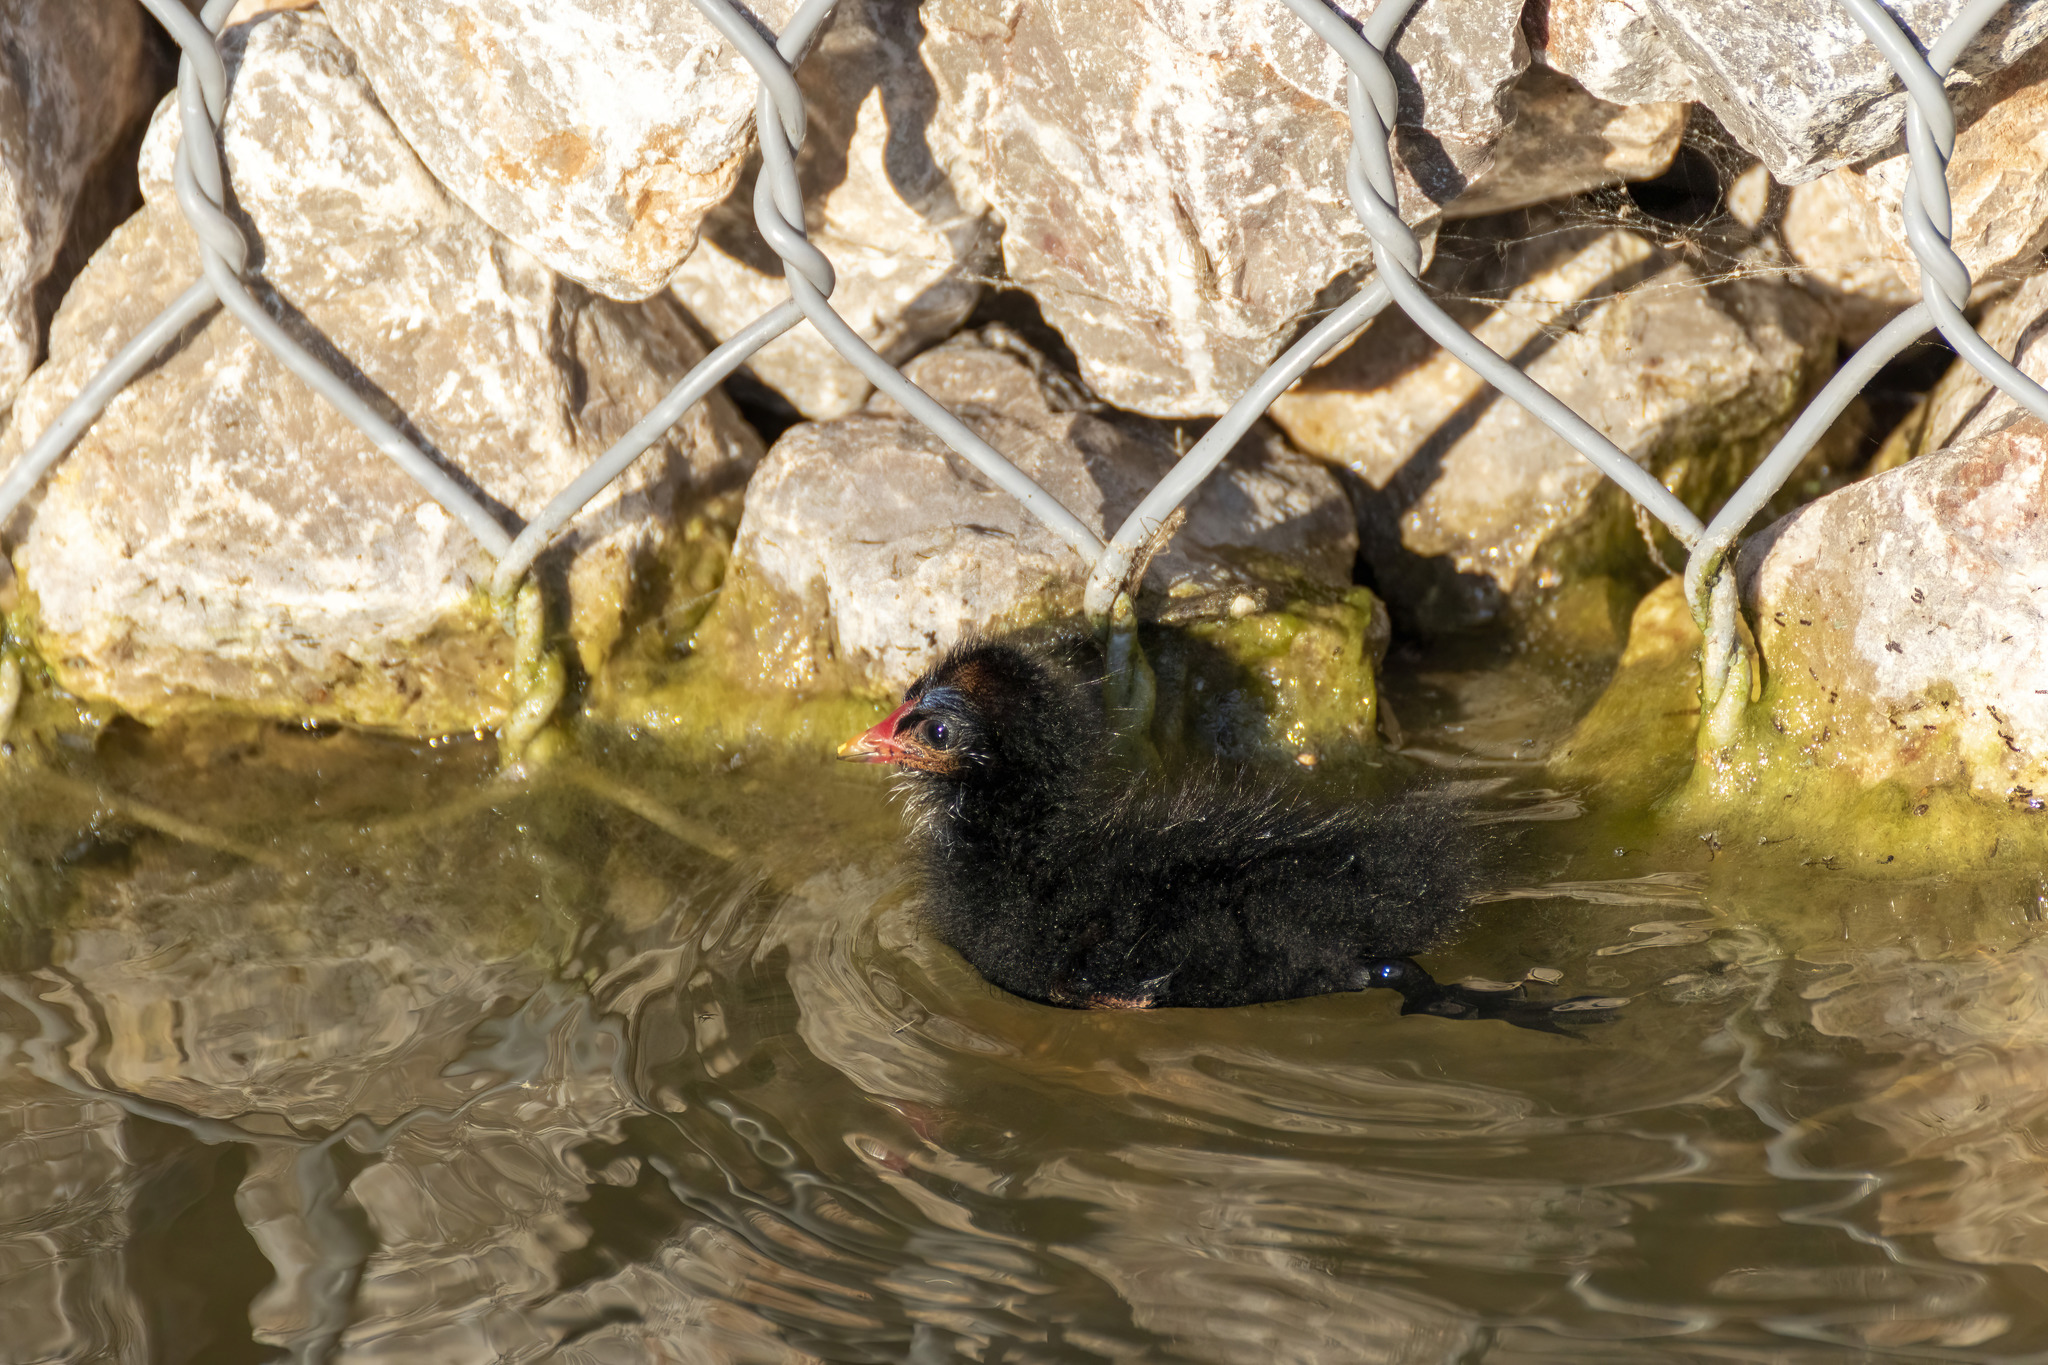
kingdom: Animalia
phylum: Chordata
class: Aves
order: Gruiformes
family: Rallidae
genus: Gallinula
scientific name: Gallinula chloropus
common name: Common moorhen
